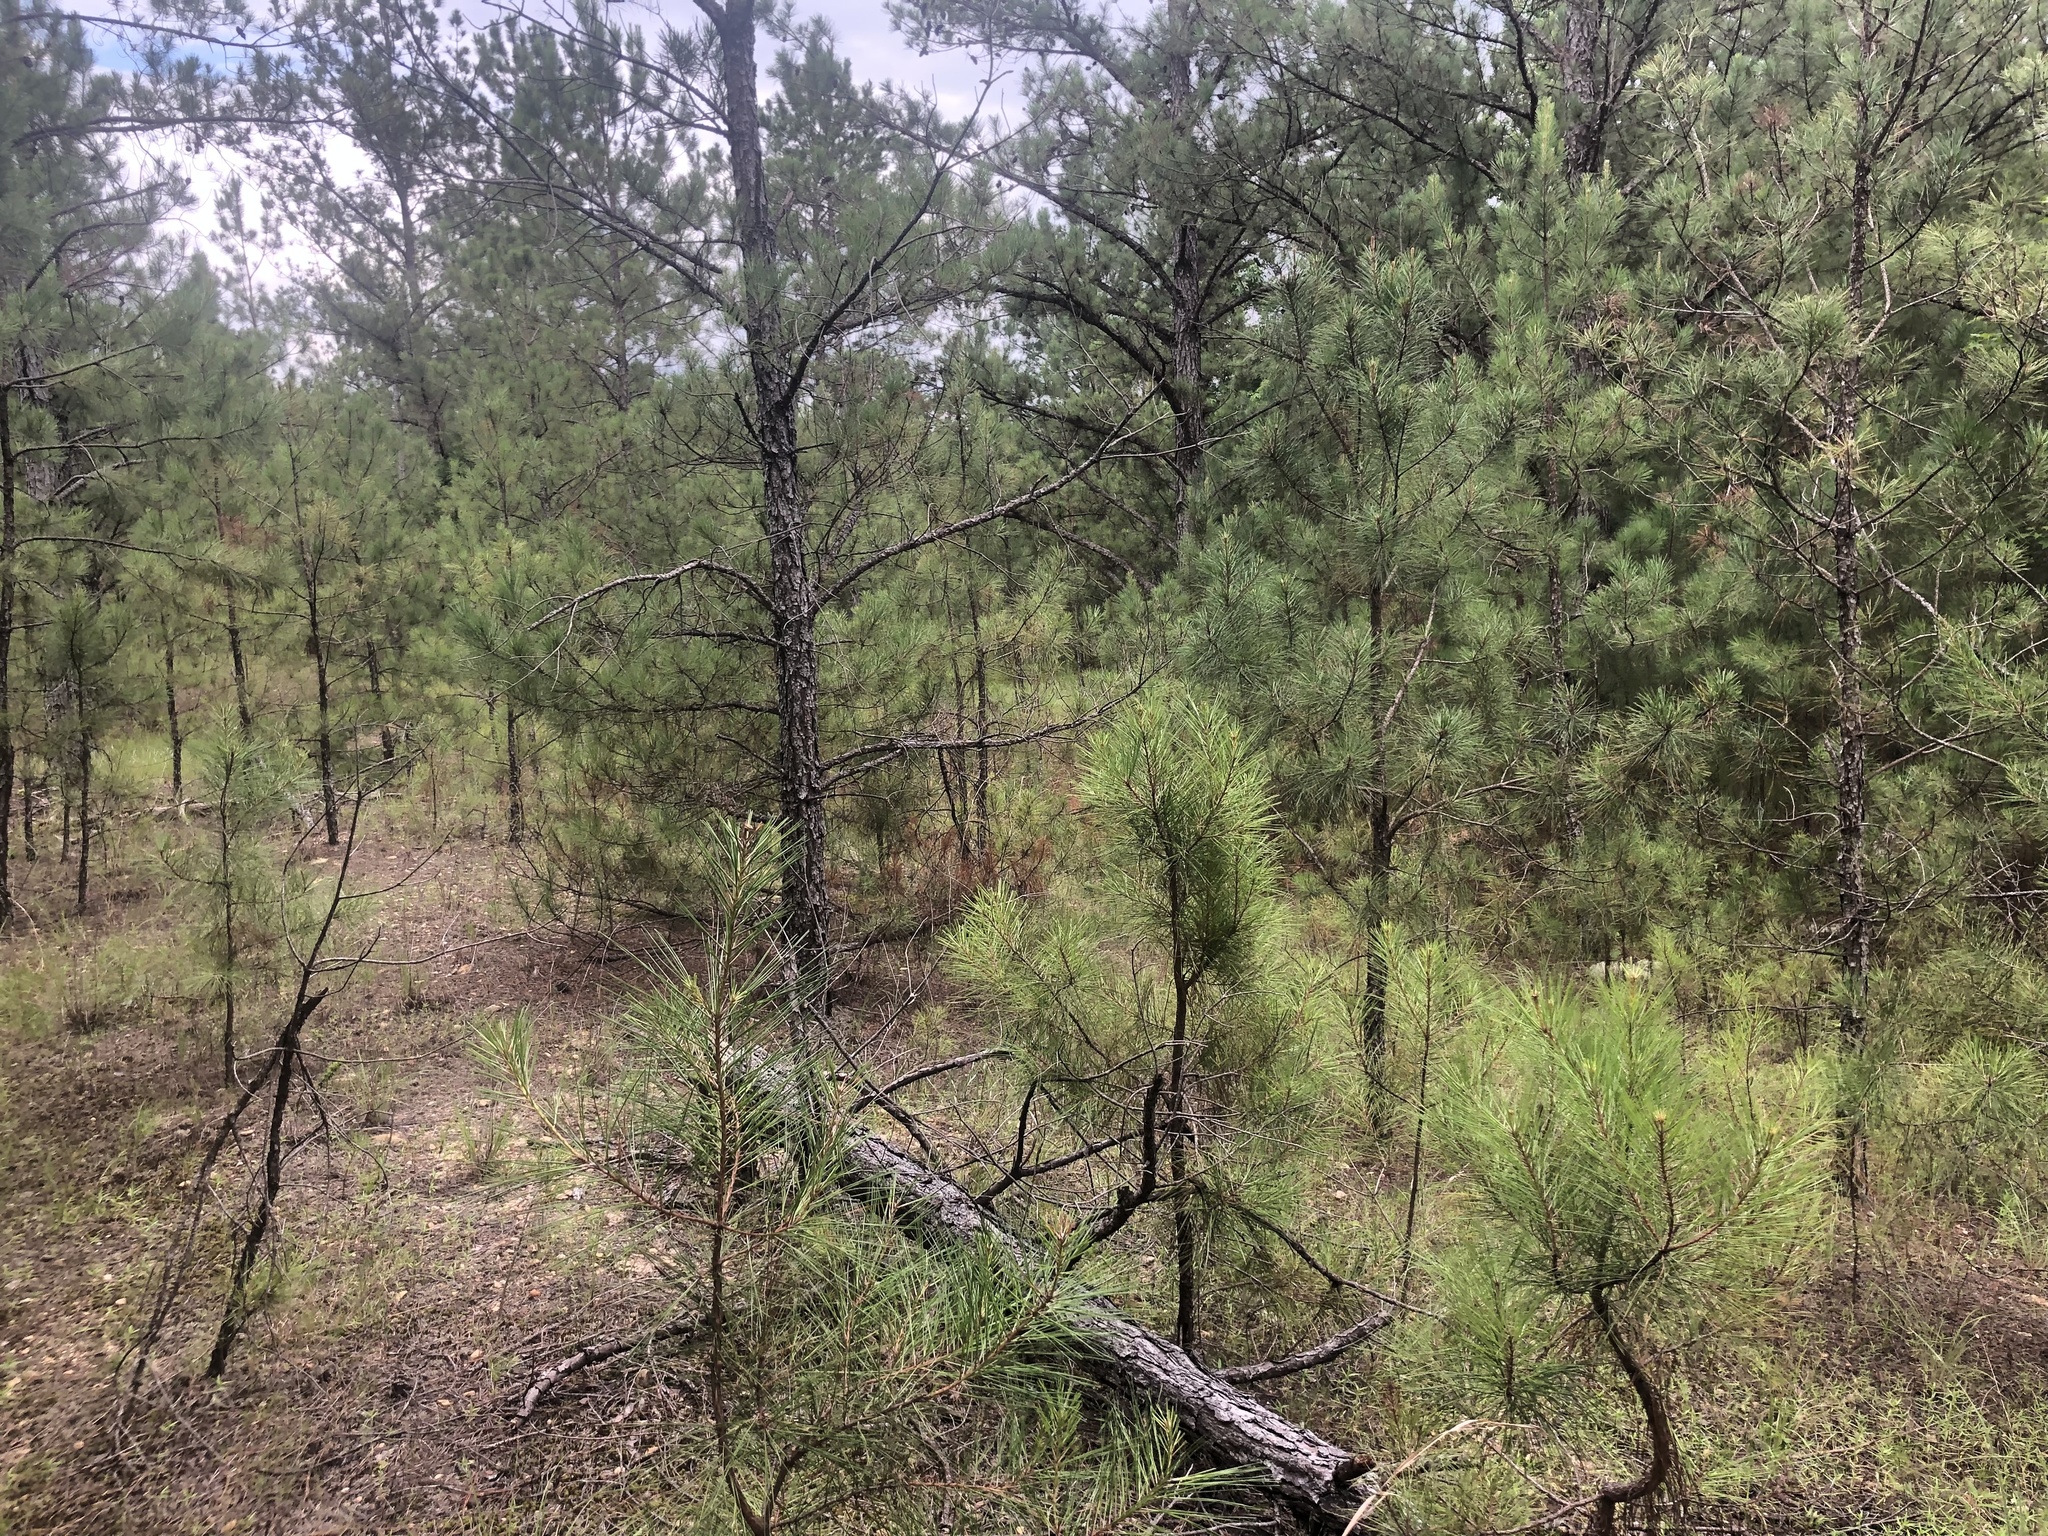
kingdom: Plantae
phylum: Tracheophyta
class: Pinopsida
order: Pinales
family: Pinaceae
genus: Pinus
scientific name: Pinus echinata
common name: Shortleaf pine
